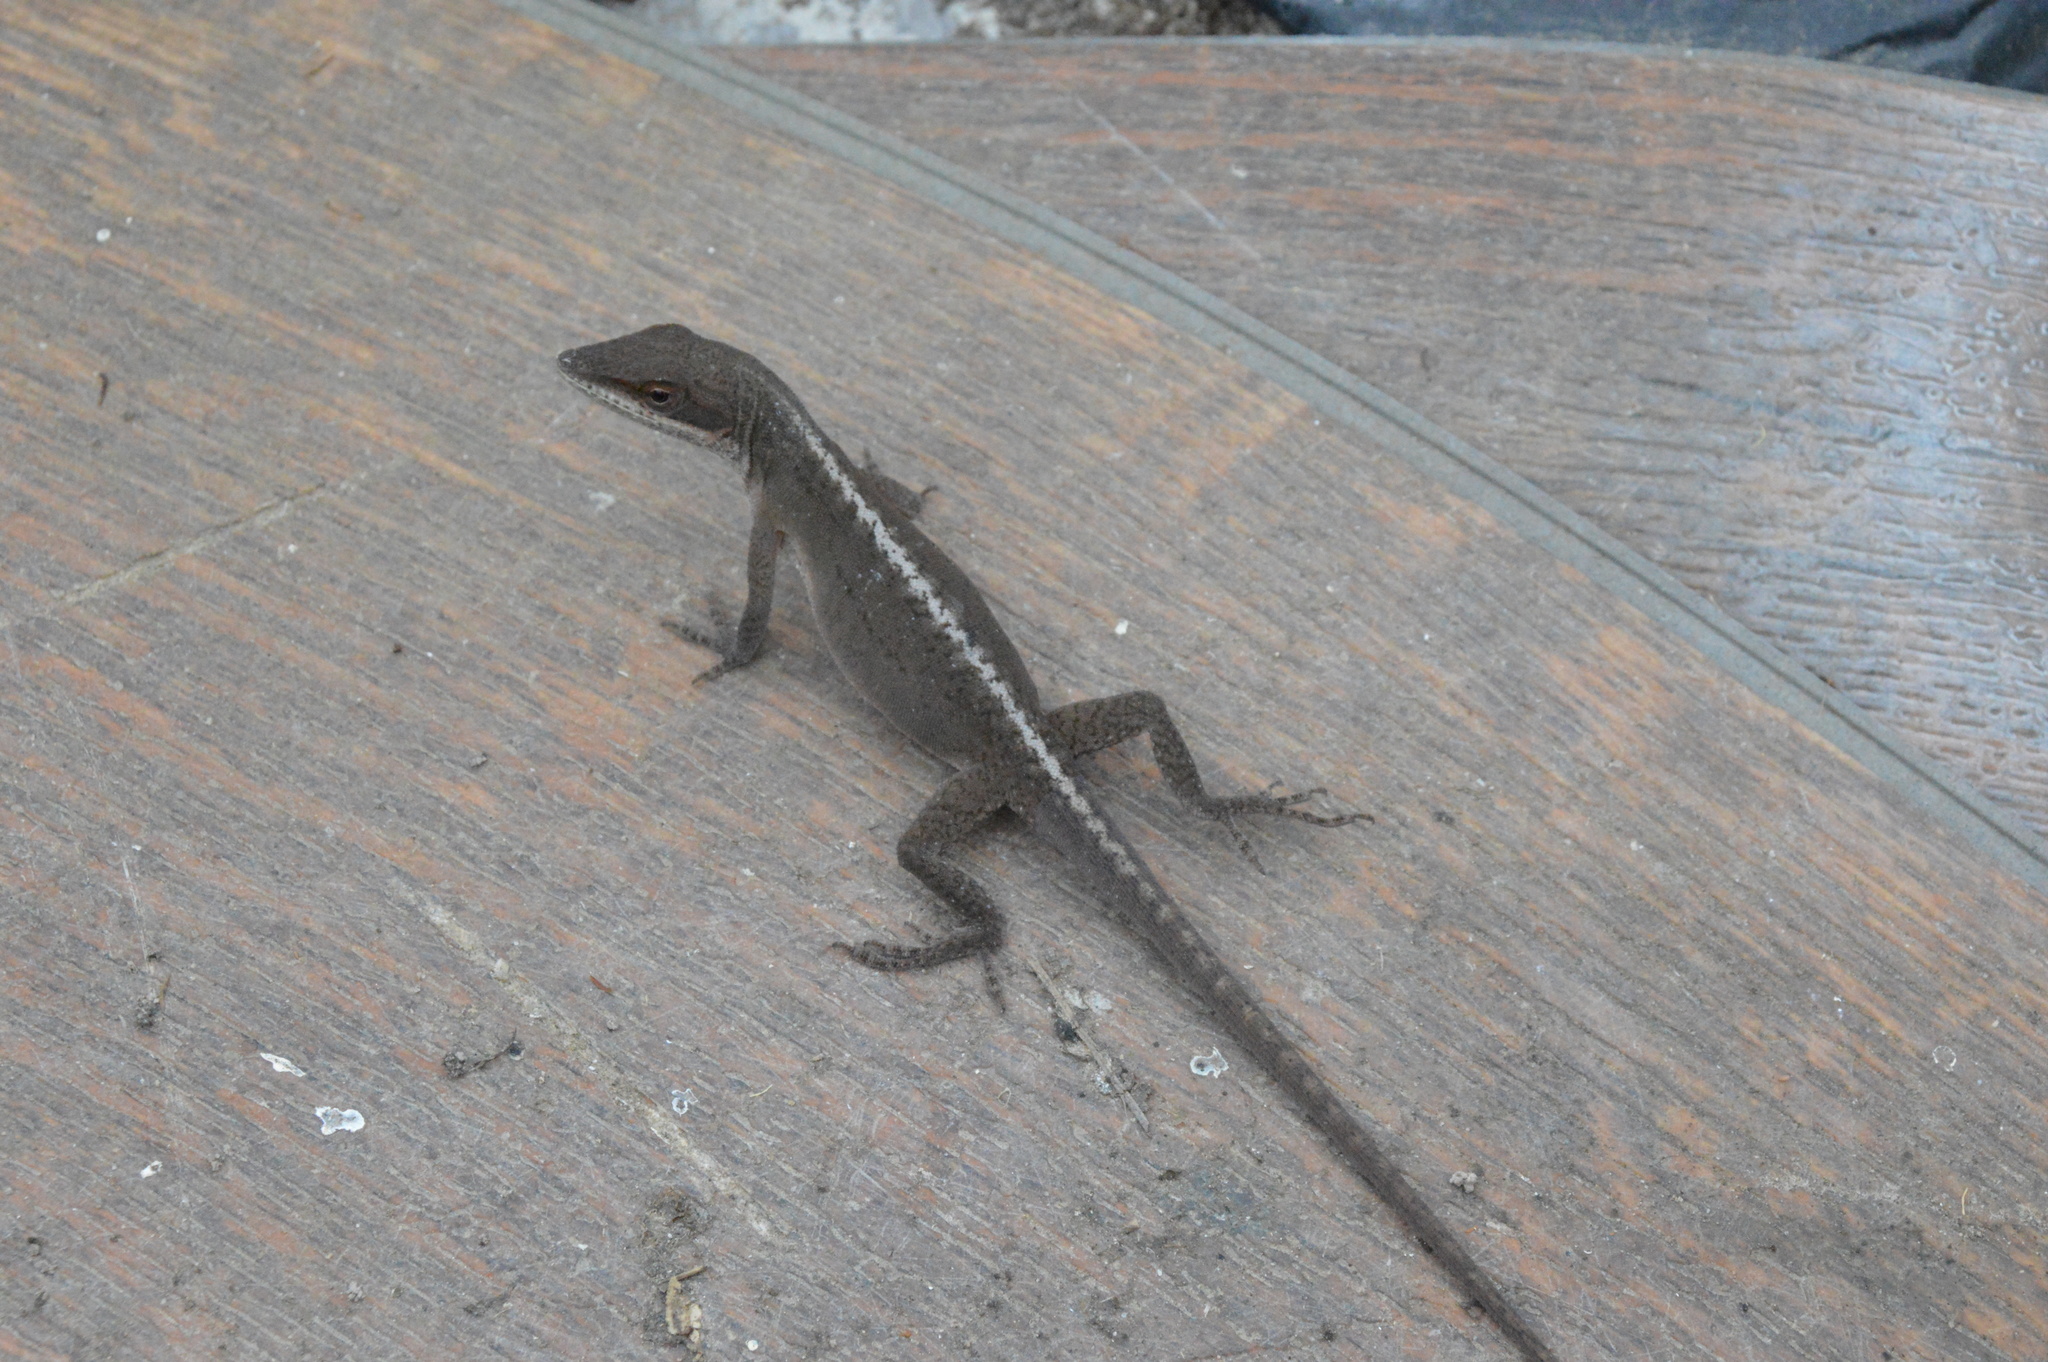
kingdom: Animalia
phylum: Chordata
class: Squamata
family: Dactyloidae
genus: Anolis
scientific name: Anolis carolinensis
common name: Green anole
